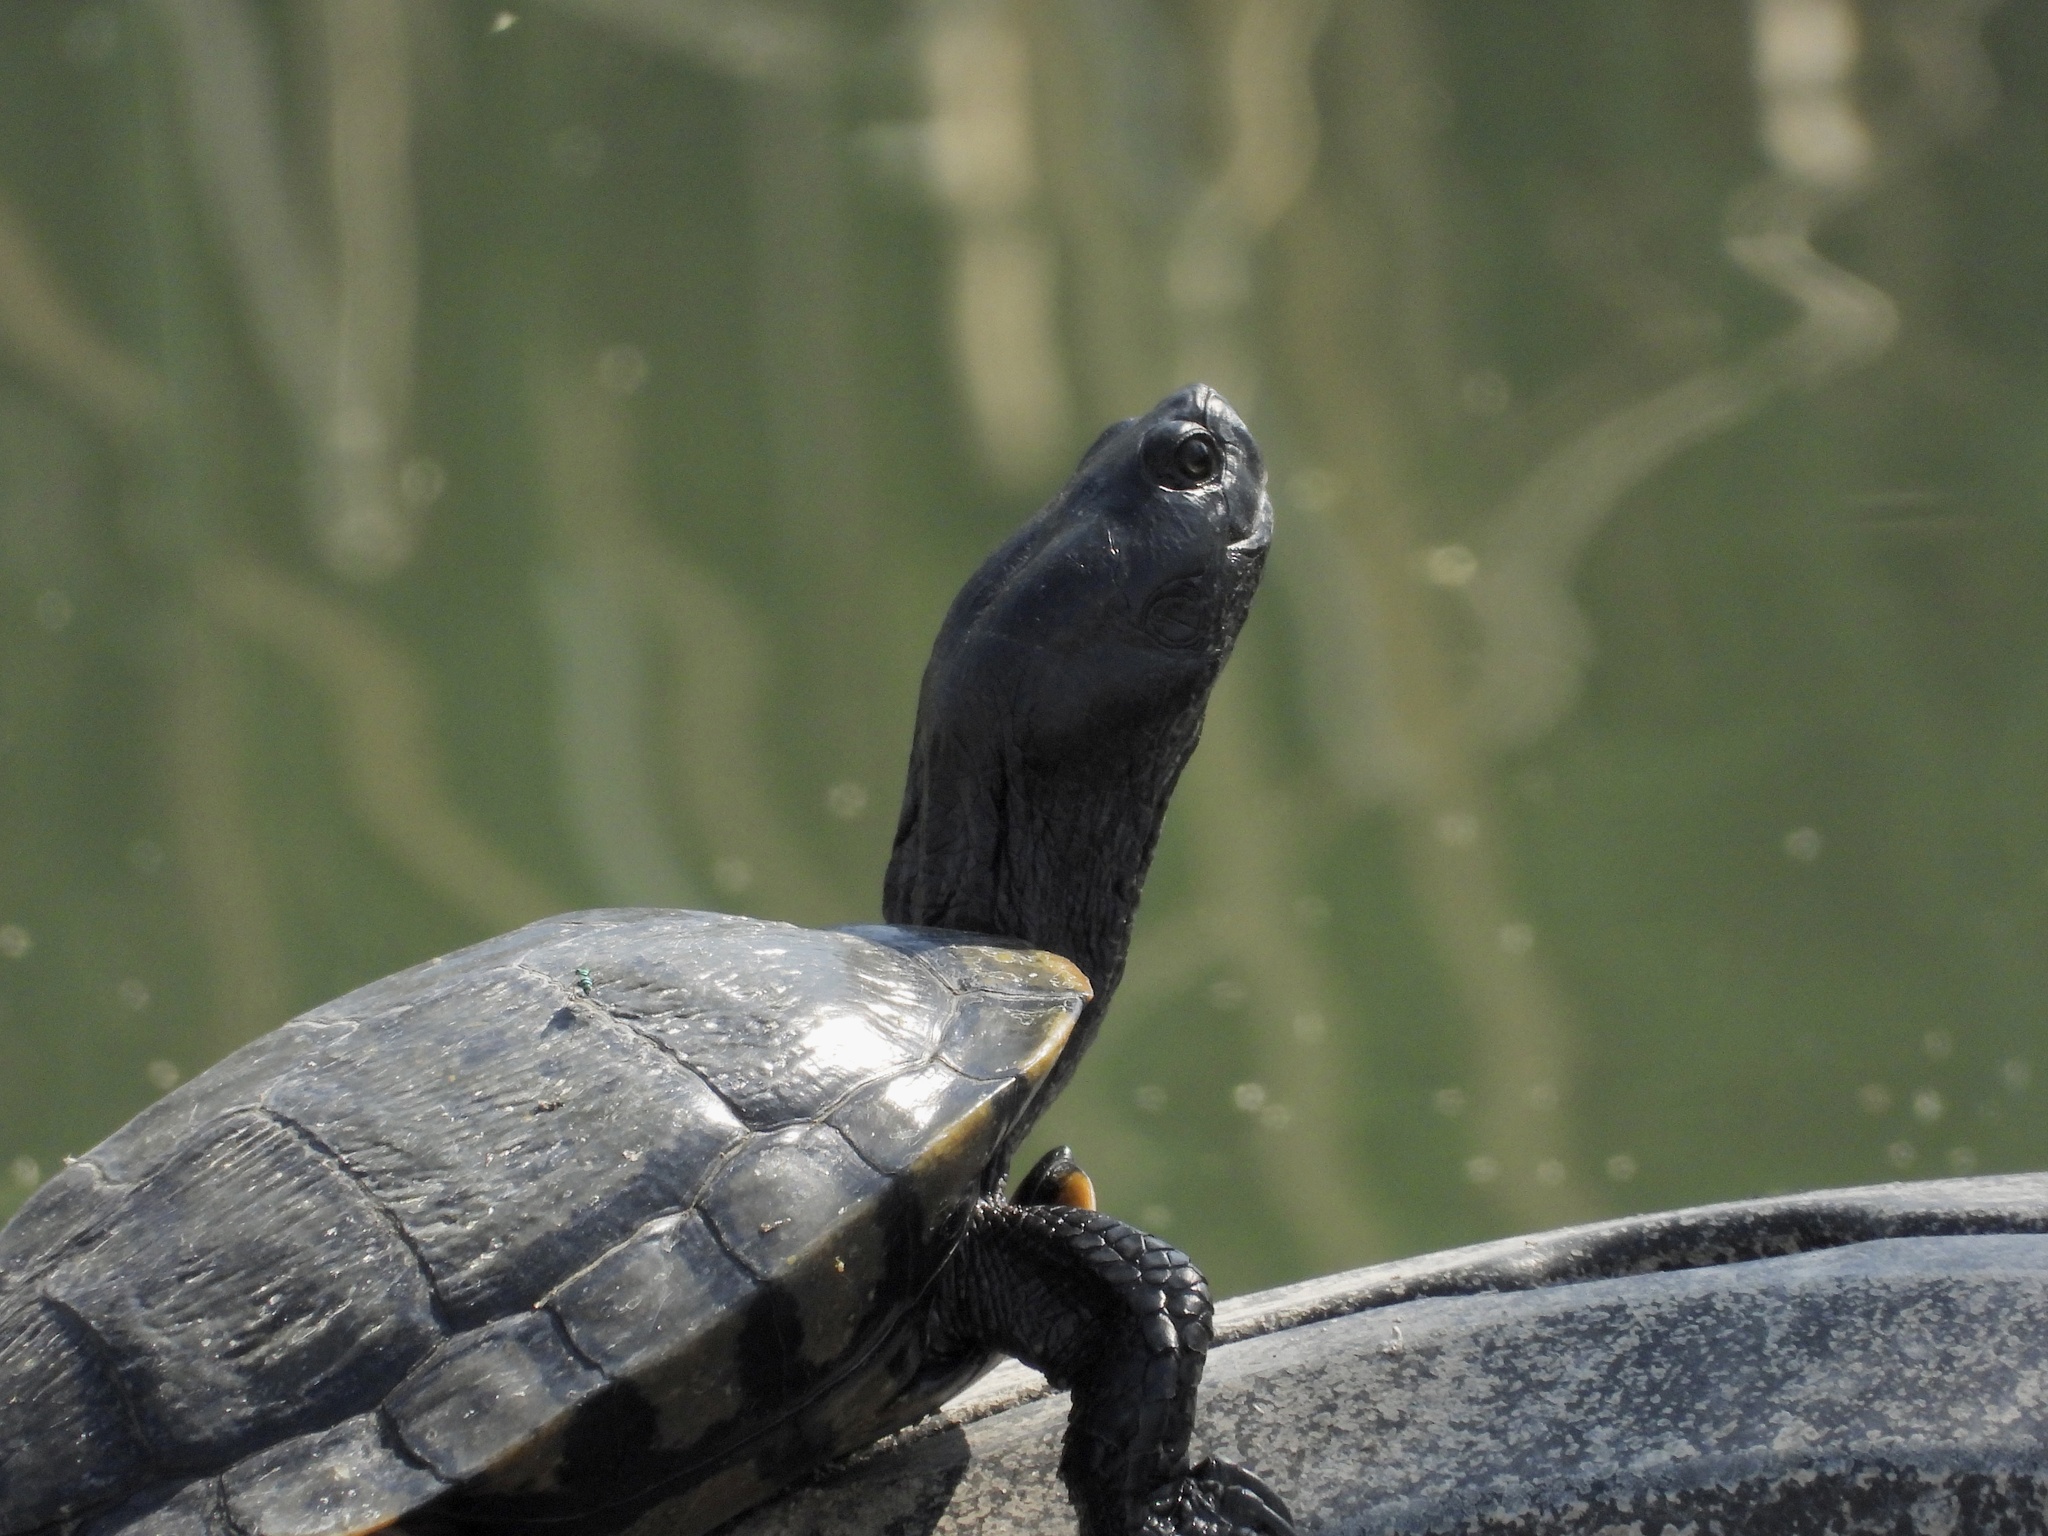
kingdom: Animalia
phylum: Chordata
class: Testudines
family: Emydidae
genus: Trachemys
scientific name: Trachemys scripta
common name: Slider
